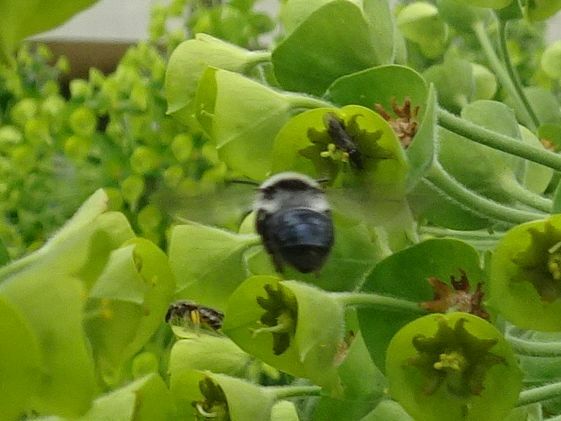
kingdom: Animalia
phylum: Arthropoda
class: Insecta
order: Hymenoptera
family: Andrenidae
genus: Andrena
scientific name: Andrena cineraria
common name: Ashy mining bee
